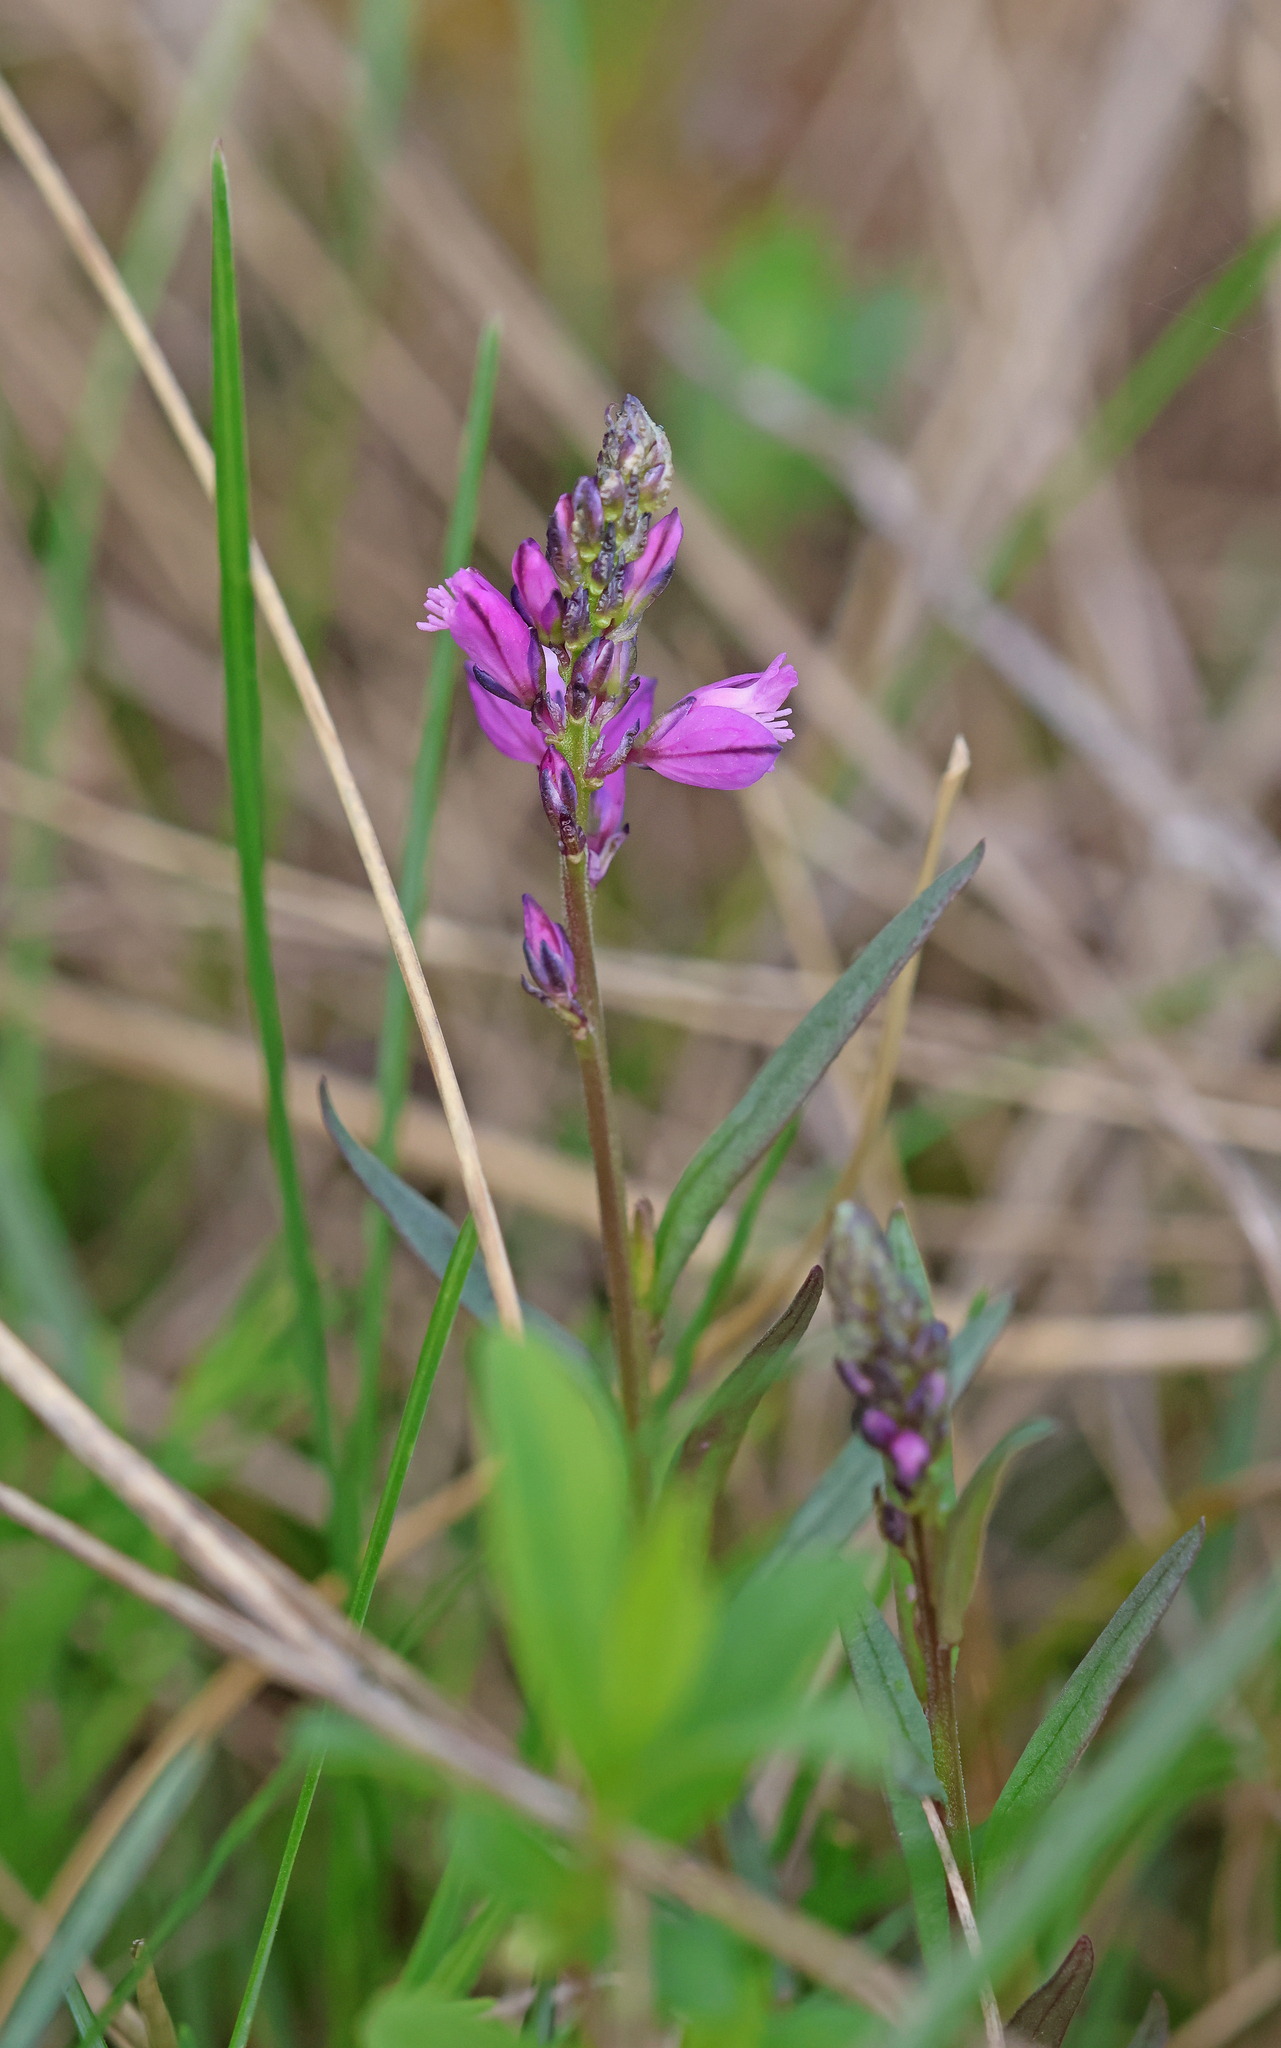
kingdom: Plantae
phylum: Tracheophyta
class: Magnoliopsida
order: Fabales
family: Polygalaceae
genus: Polygala
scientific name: Polygala comosa
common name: Tufted milkwort
